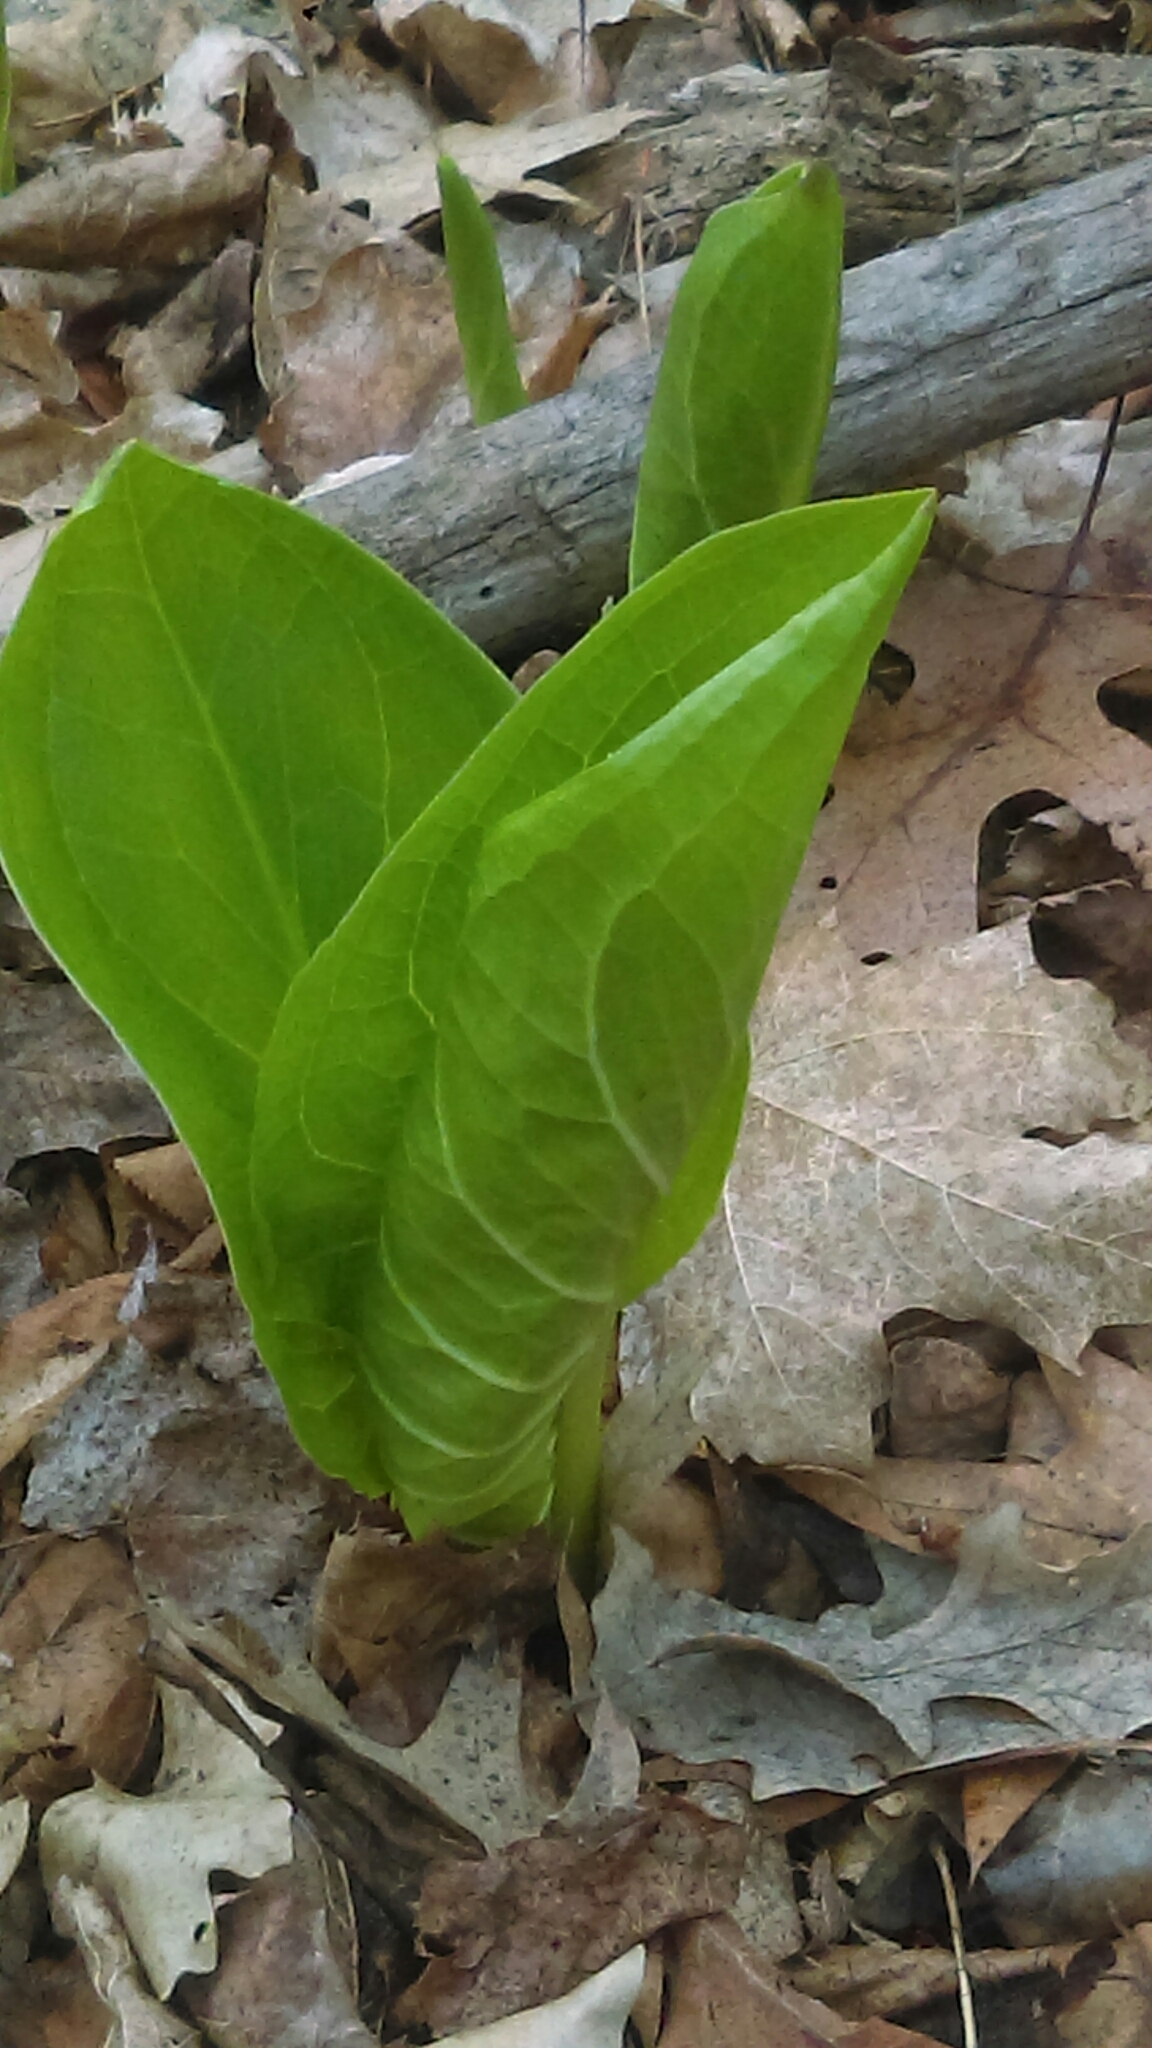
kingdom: Plantae
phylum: Tracheophyta
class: Liliopsida
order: Alismatales
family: Araceae
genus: Symplocarpus
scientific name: Symplocarpus foetidus
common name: Eastern skunk cabbage
